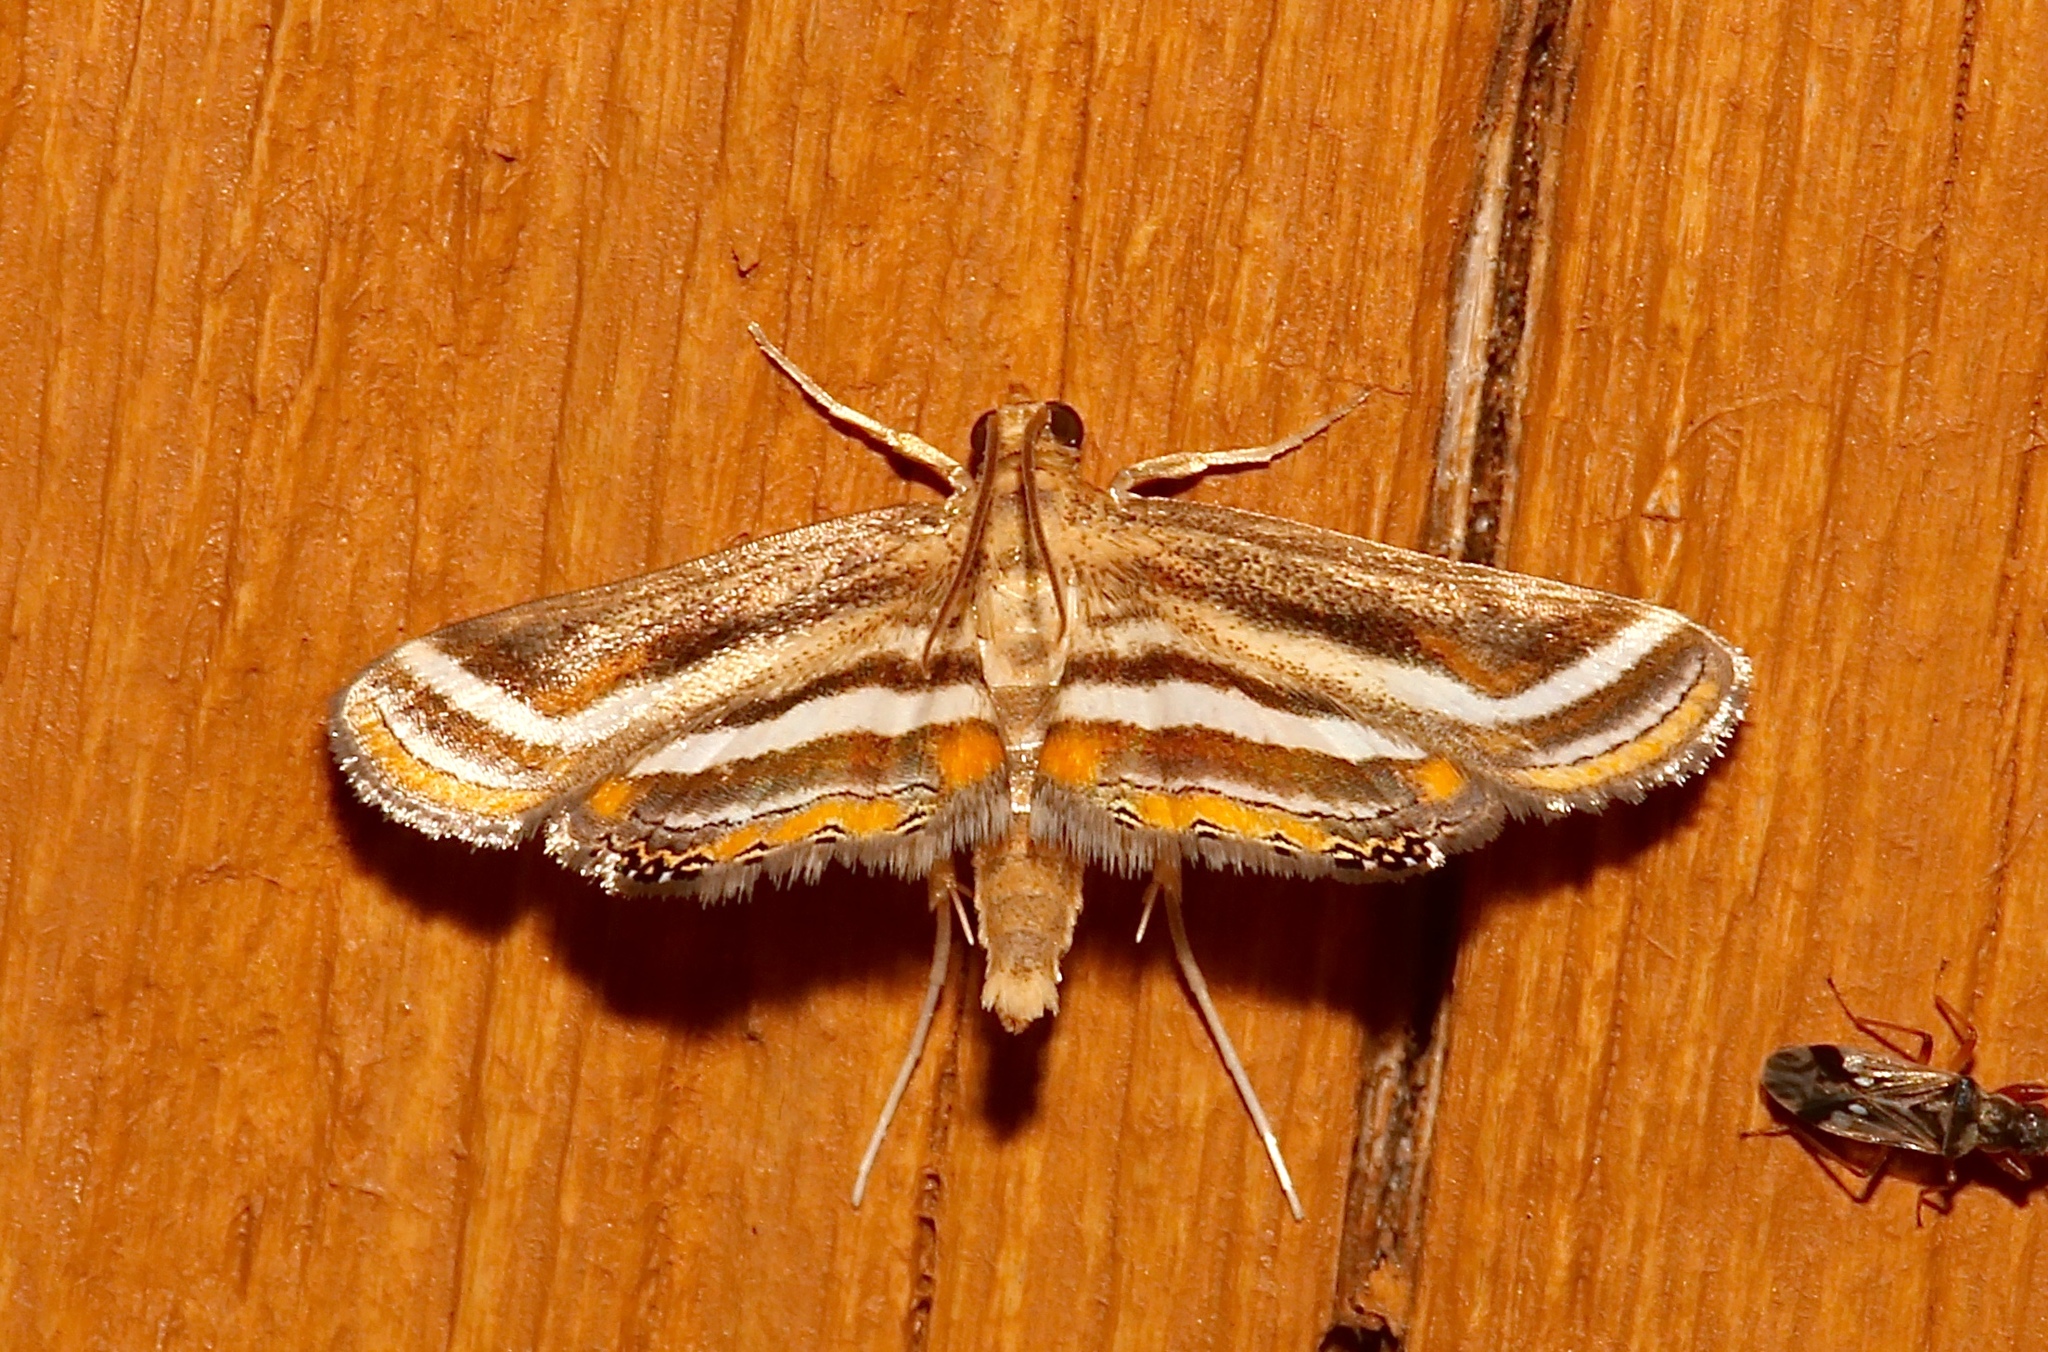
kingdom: Animalia
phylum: Arthropoda
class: Insecta
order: Lepidoptera
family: Crambidae
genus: Parapoynx
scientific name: Parapoynx seminealis
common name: Floating-heart waterlily leafcutter
